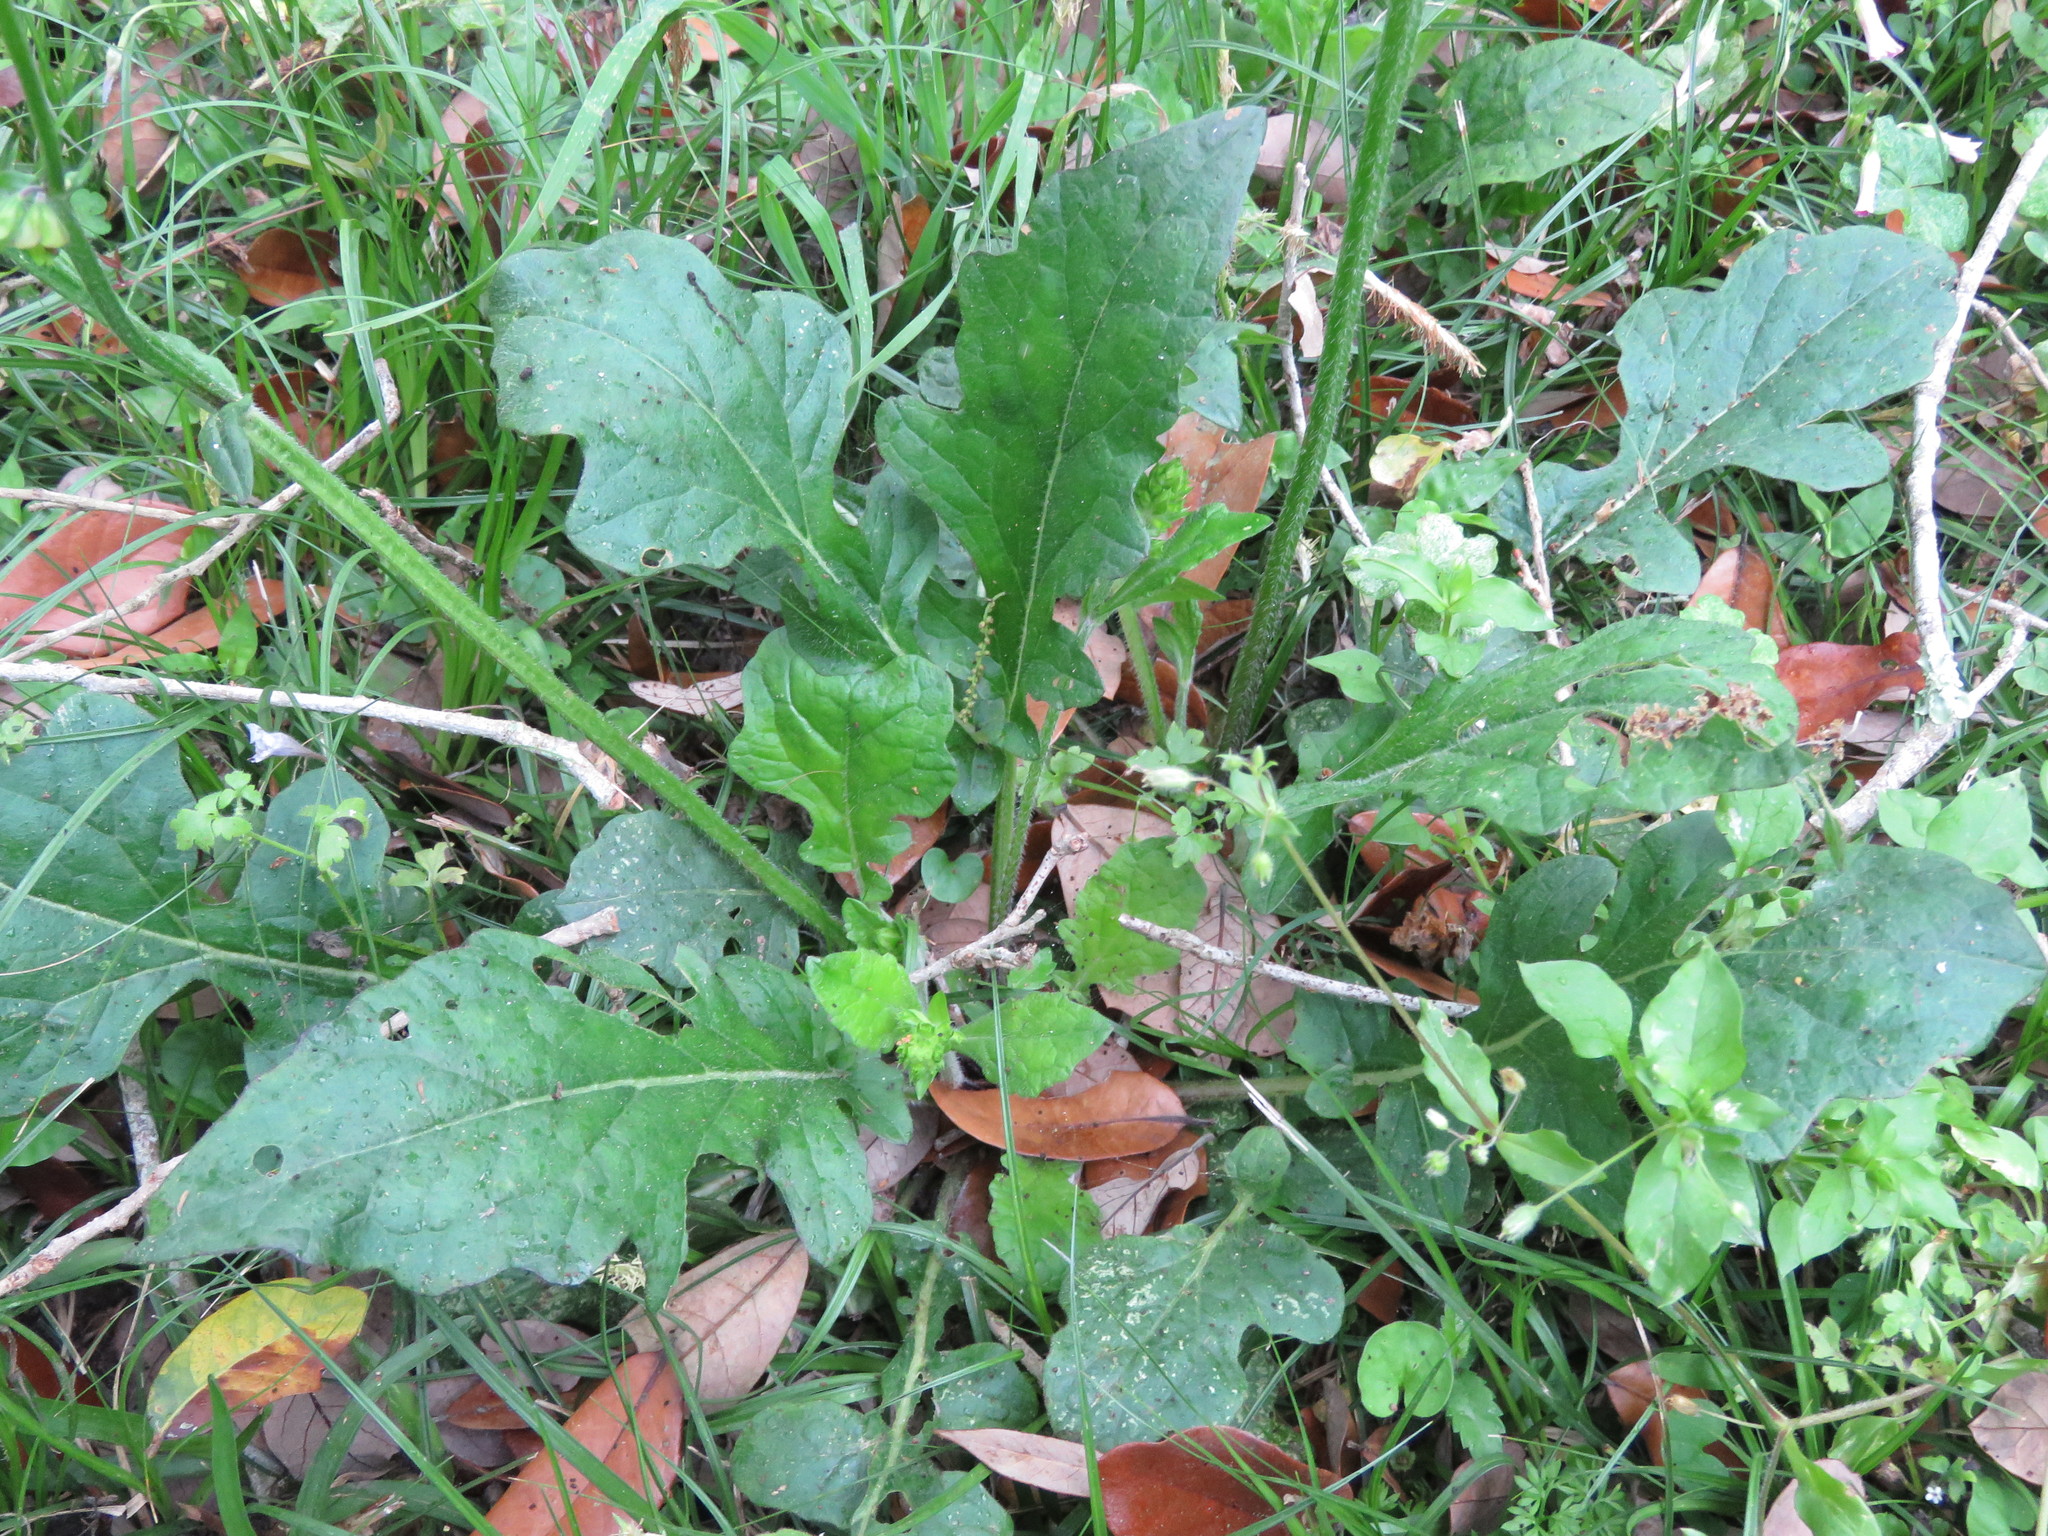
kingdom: Plantae
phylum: Tracheophyta
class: Magnoliopsida
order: Lamiales
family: Lamiaceae
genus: Salvia
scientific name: Salvia lyrata
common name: Cancerweed
